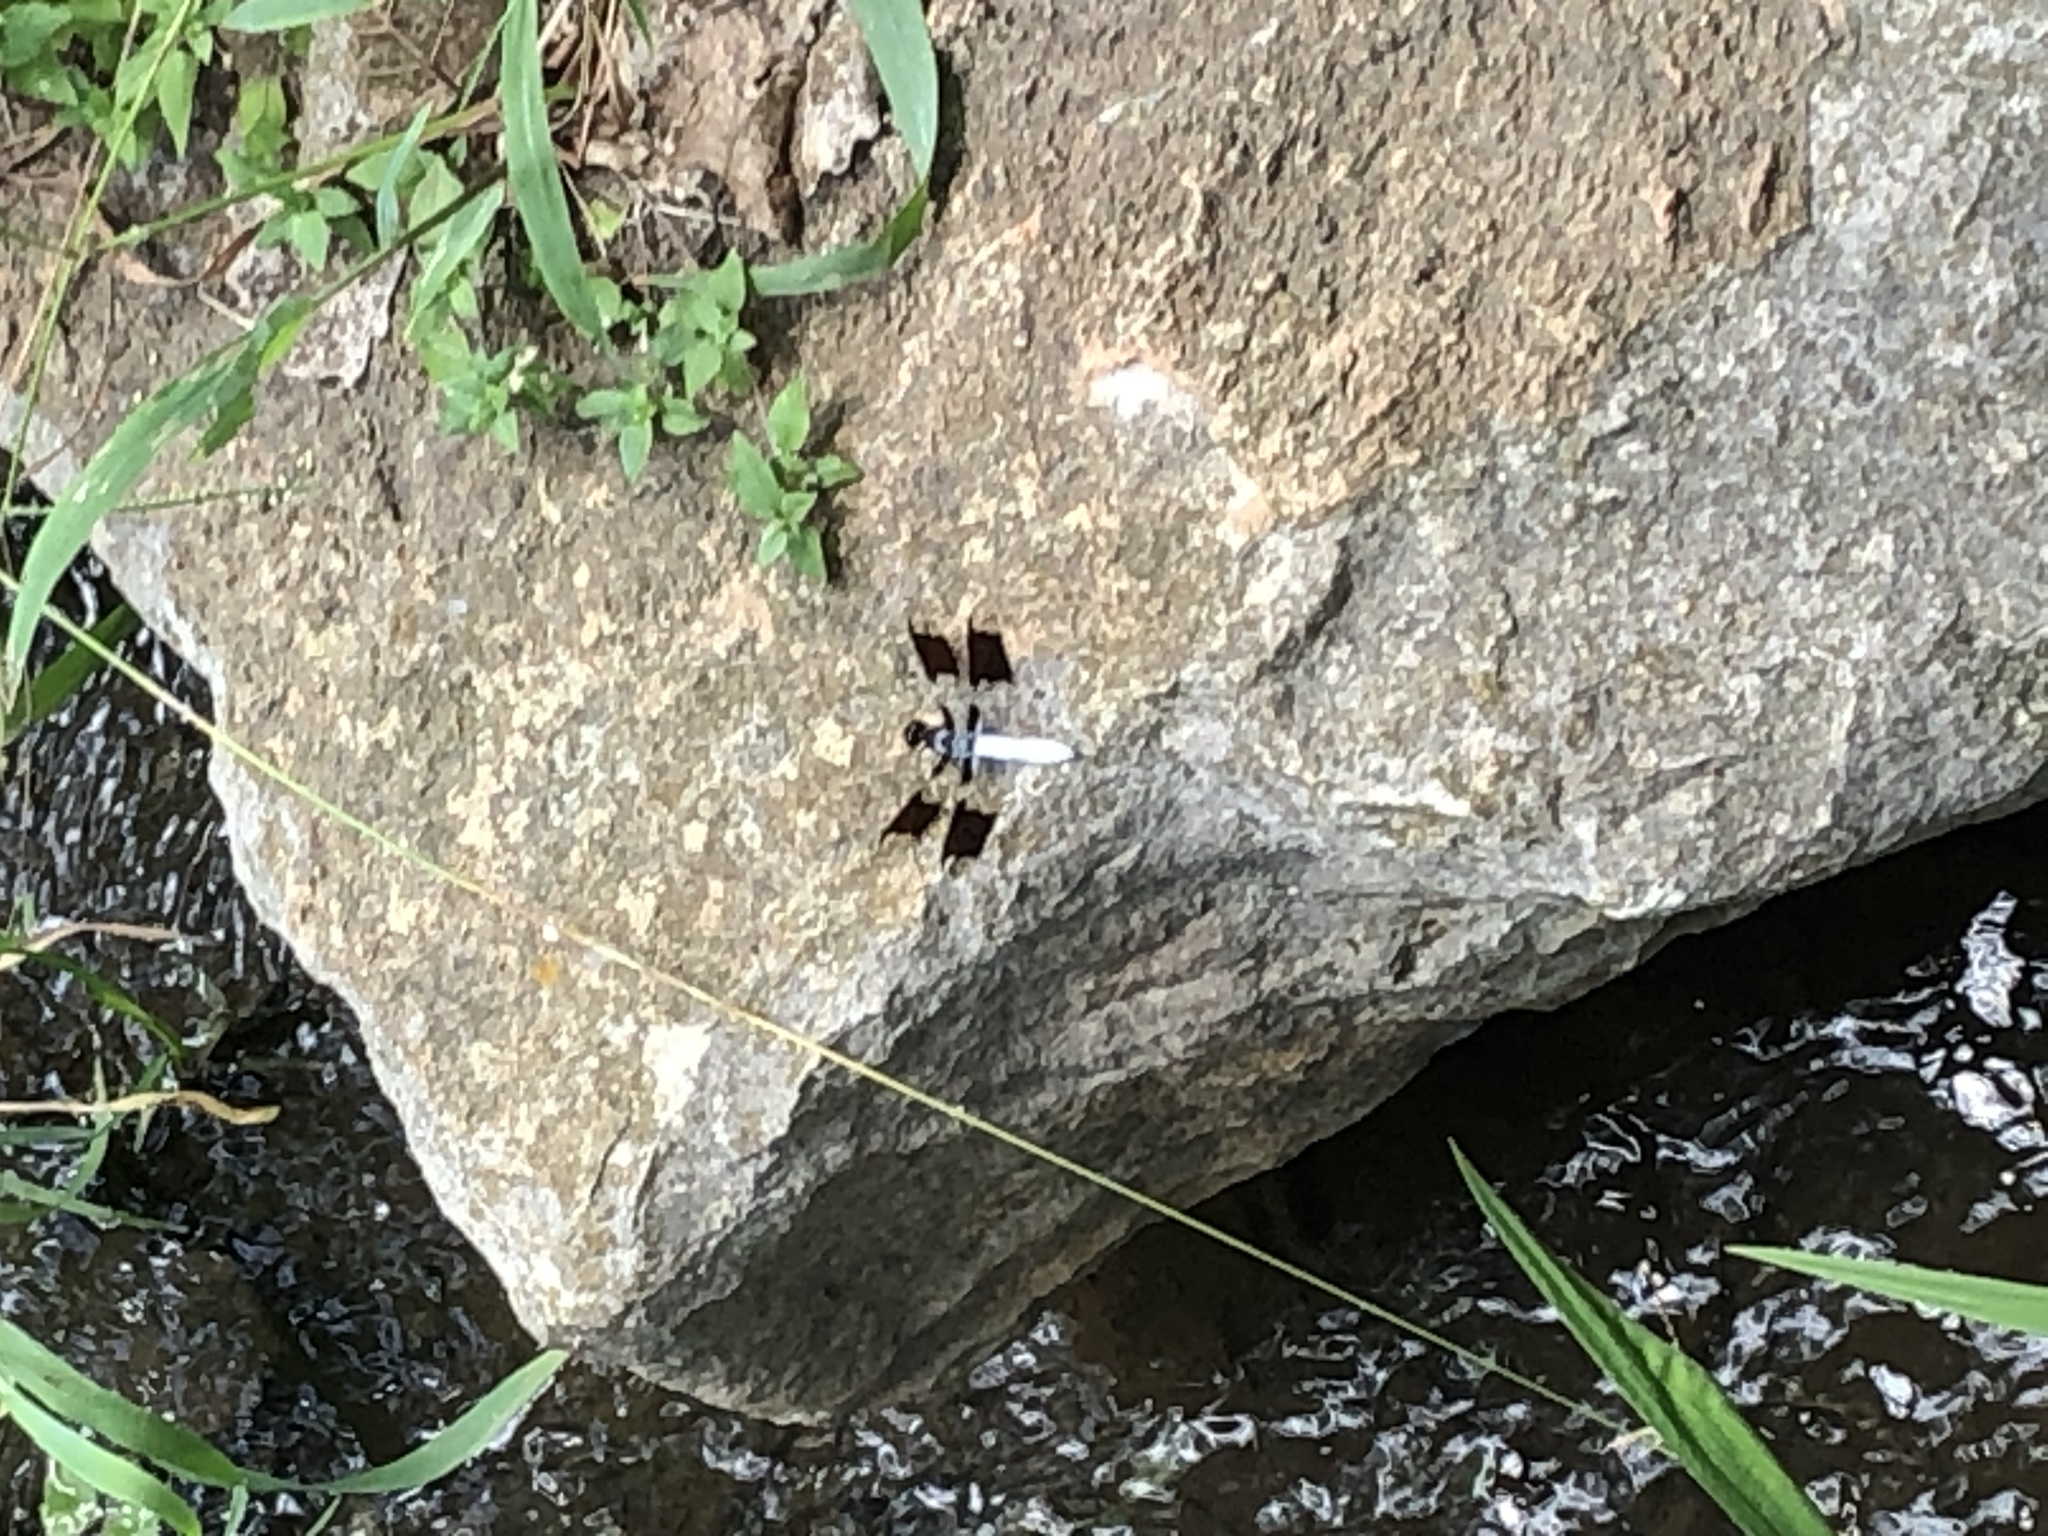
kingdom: Animalia
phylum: Arthropoda
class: Insecta
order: Odonata
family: Libellulidae
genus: Plathemis
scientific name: Plathemis lydia
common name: Common whitetail
